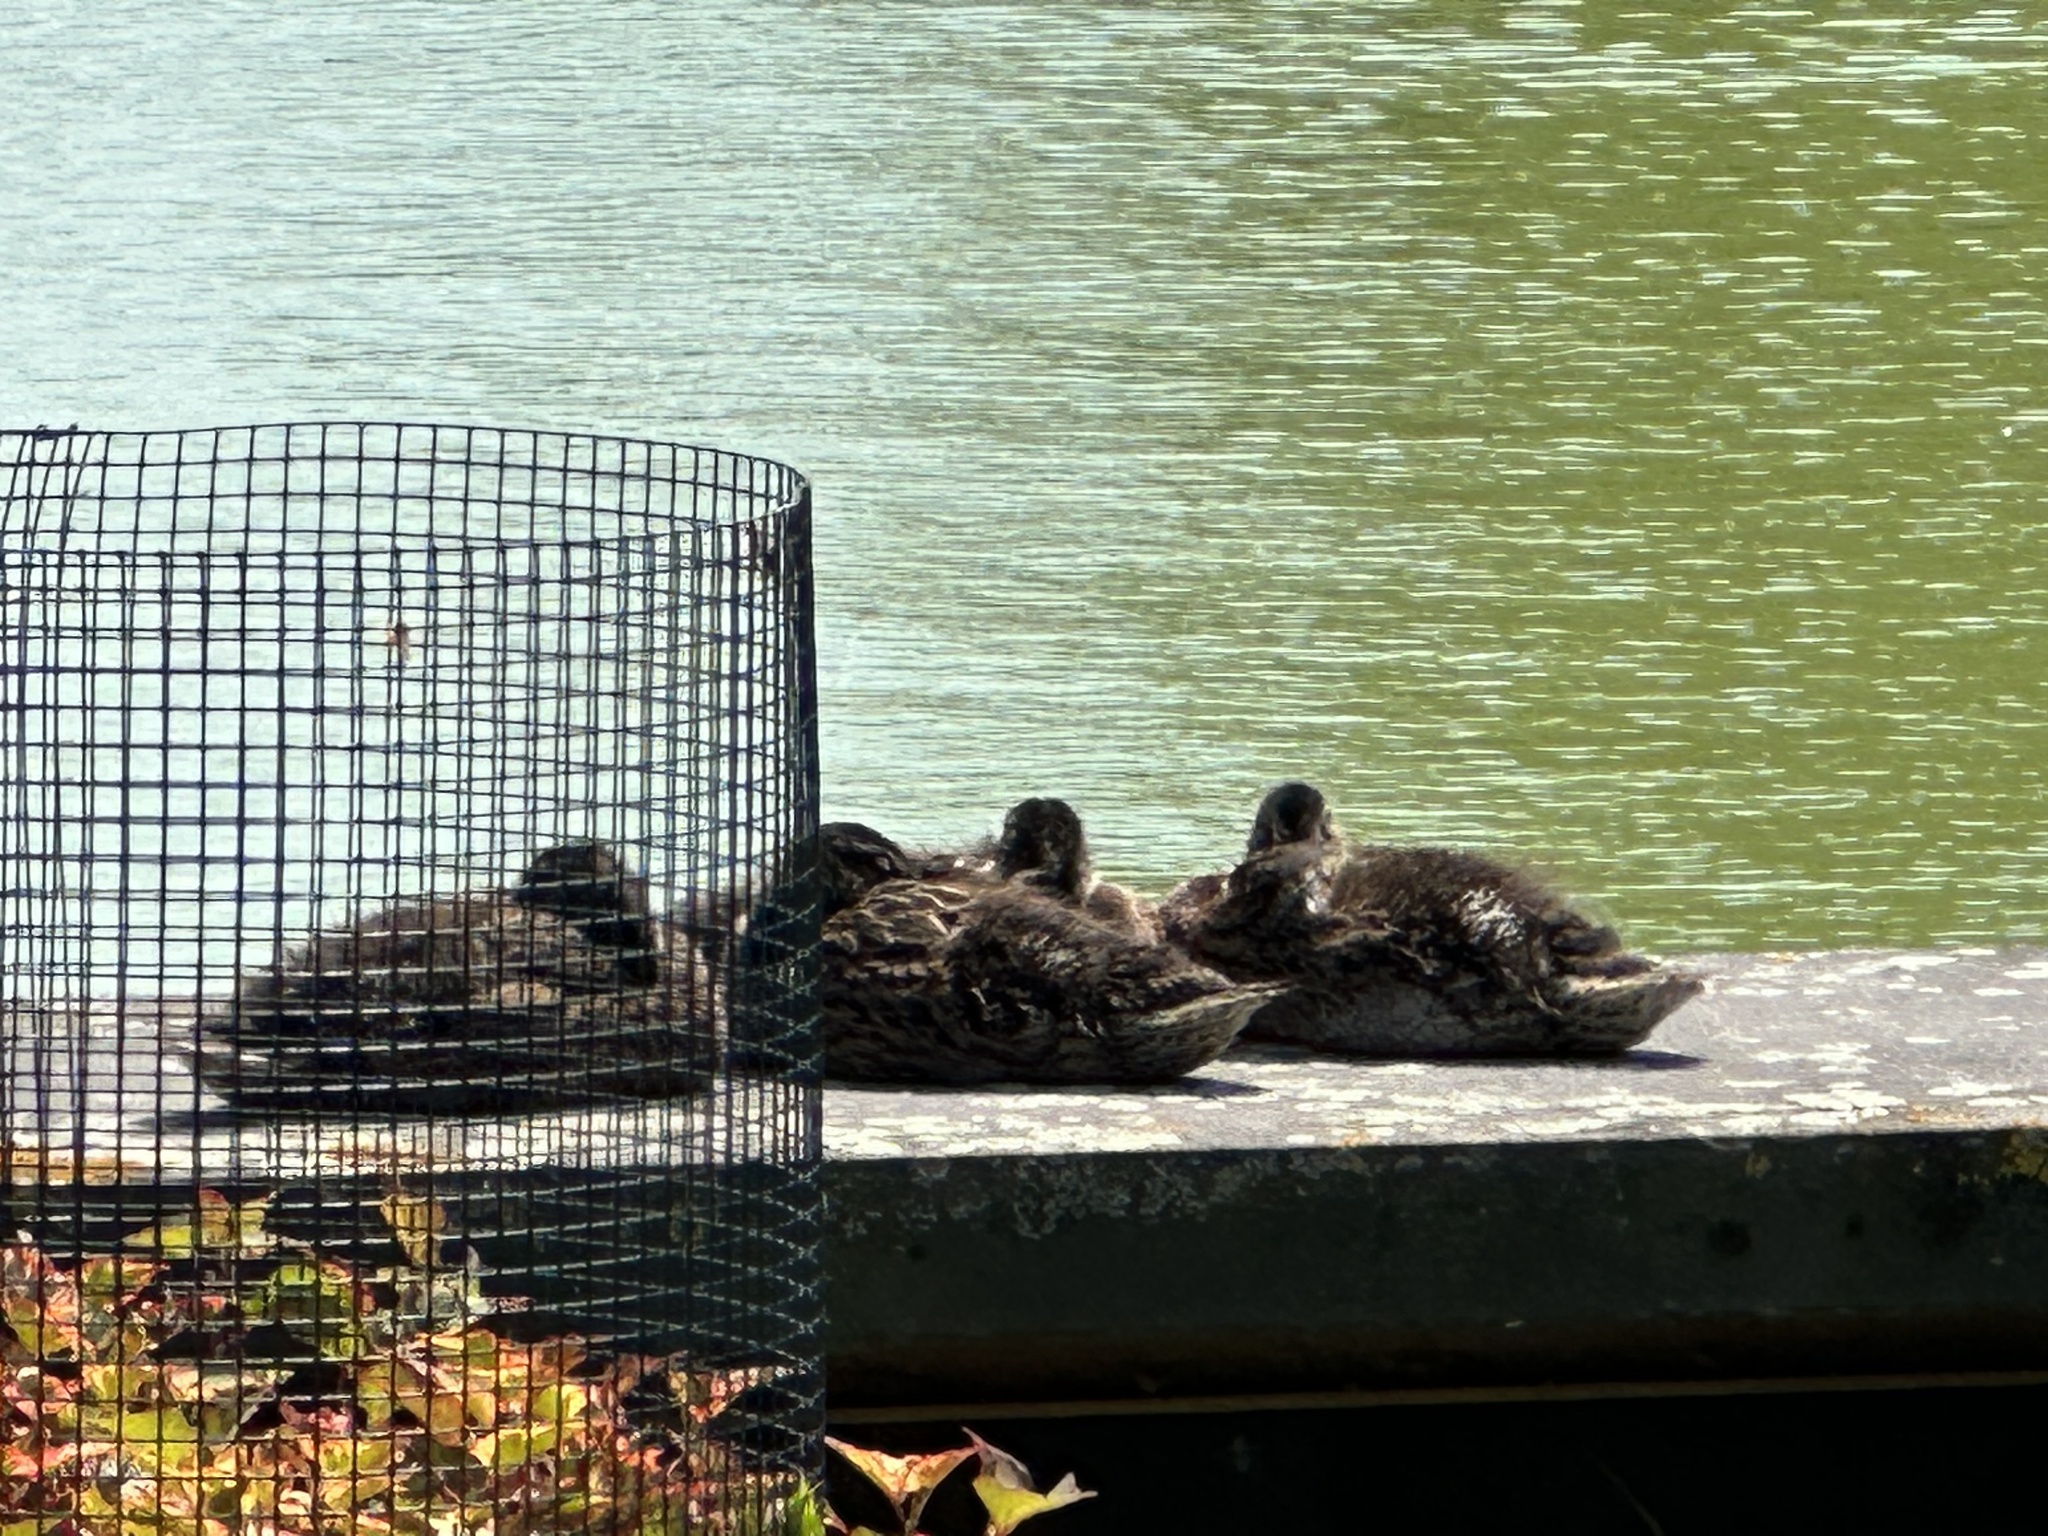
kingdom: Animalia
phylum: Chordata
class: Aves
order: Anseriformes
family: Anatidae
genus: Anas
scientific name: Anas platyrhynchos
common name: Mallard
